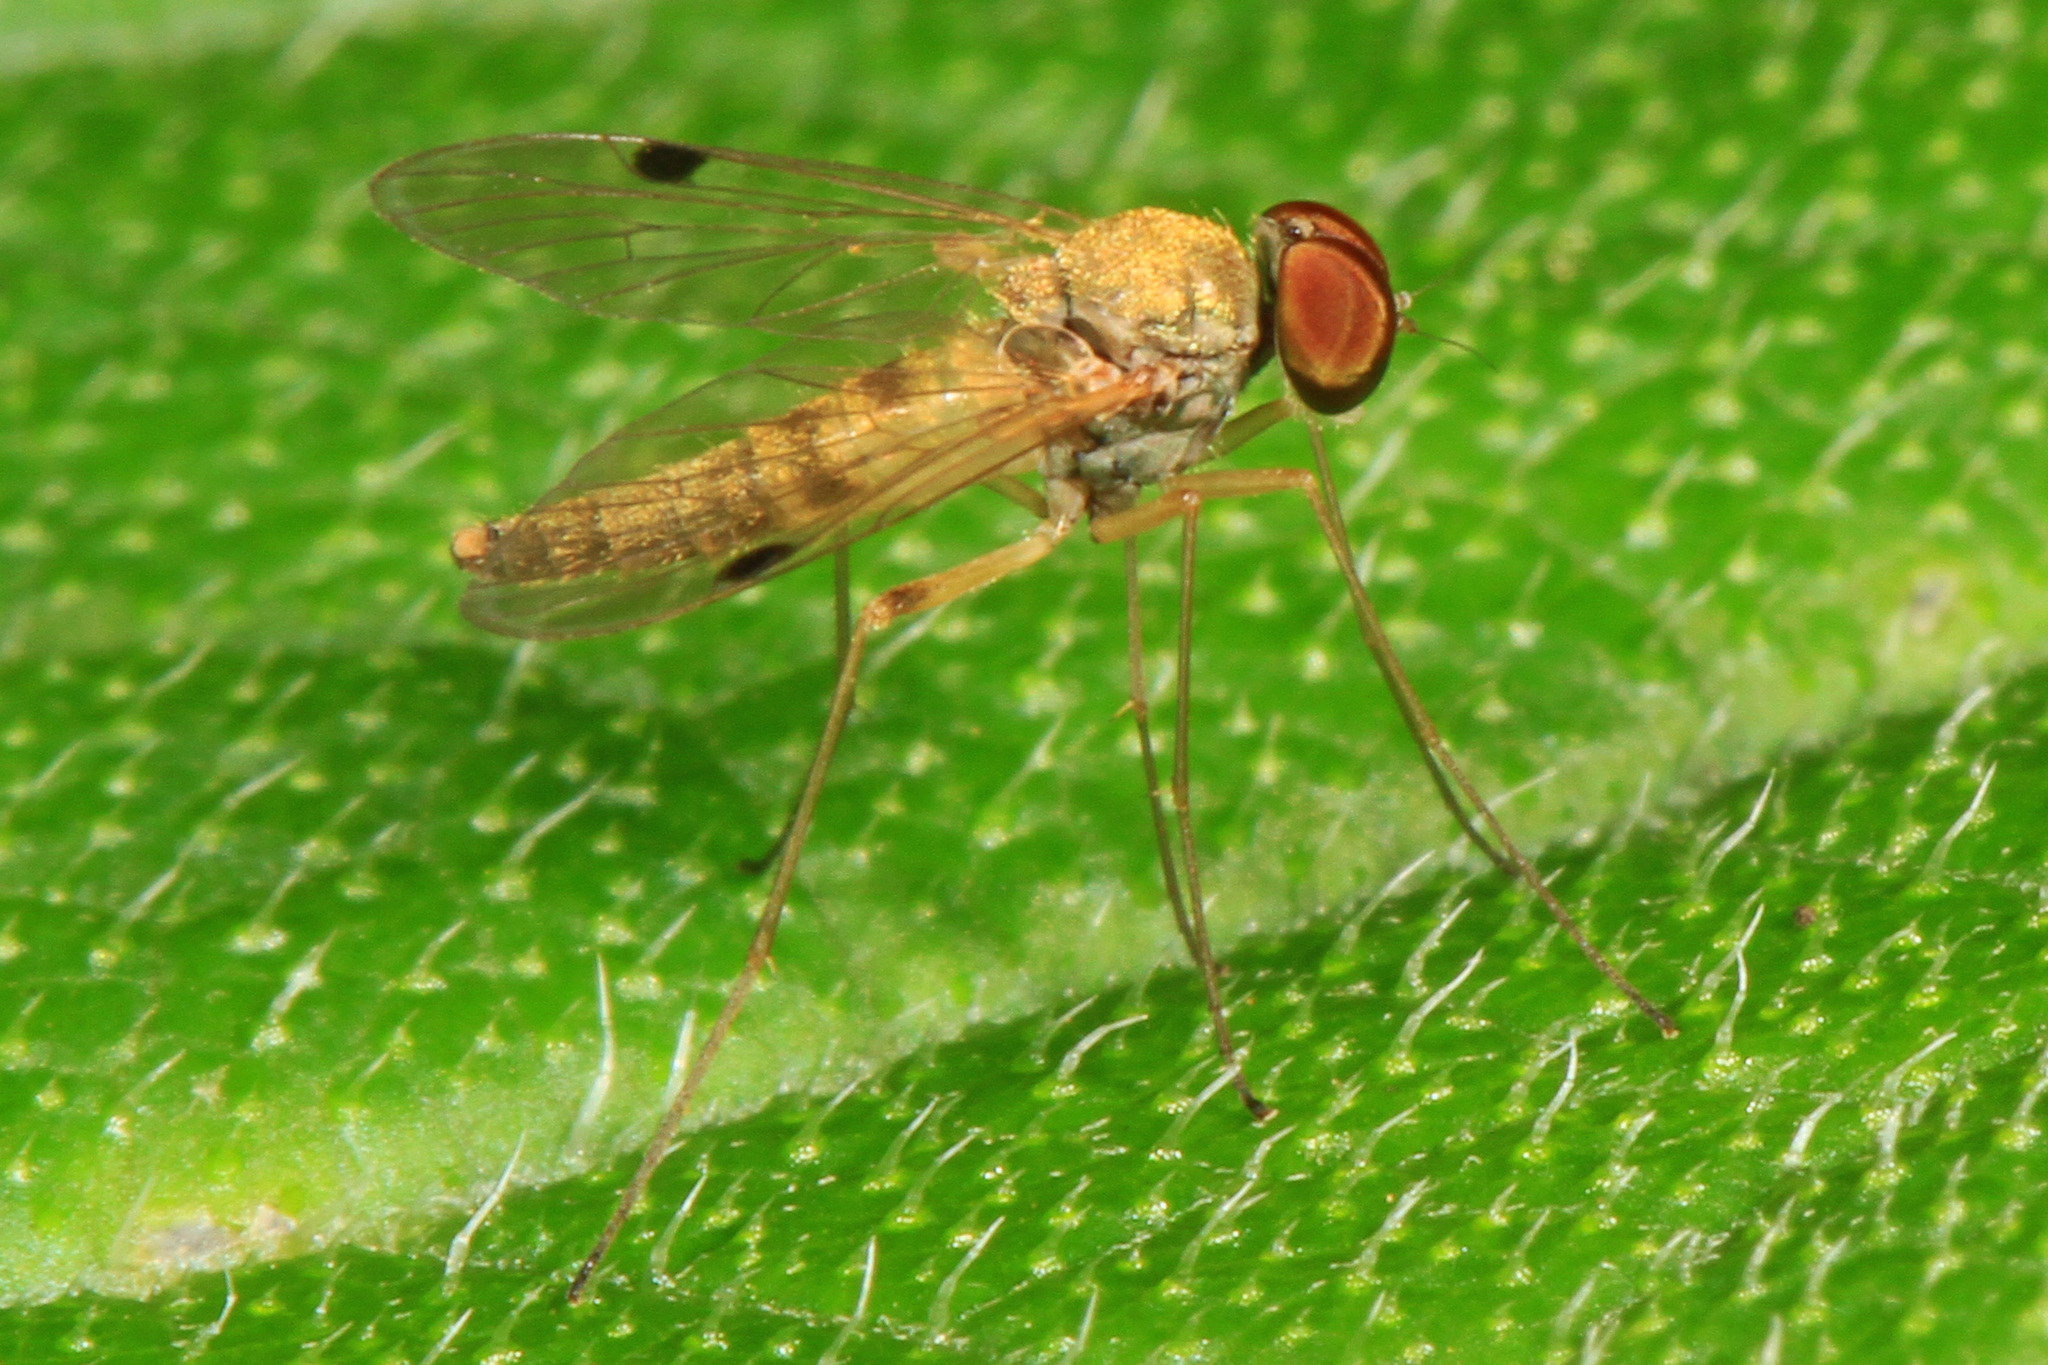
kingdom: Animalia
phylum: Arthropoda
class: Insecta
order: Diptera
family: Rhagionidae
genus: Chrysopilus
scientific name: Chrysopilus modestus
